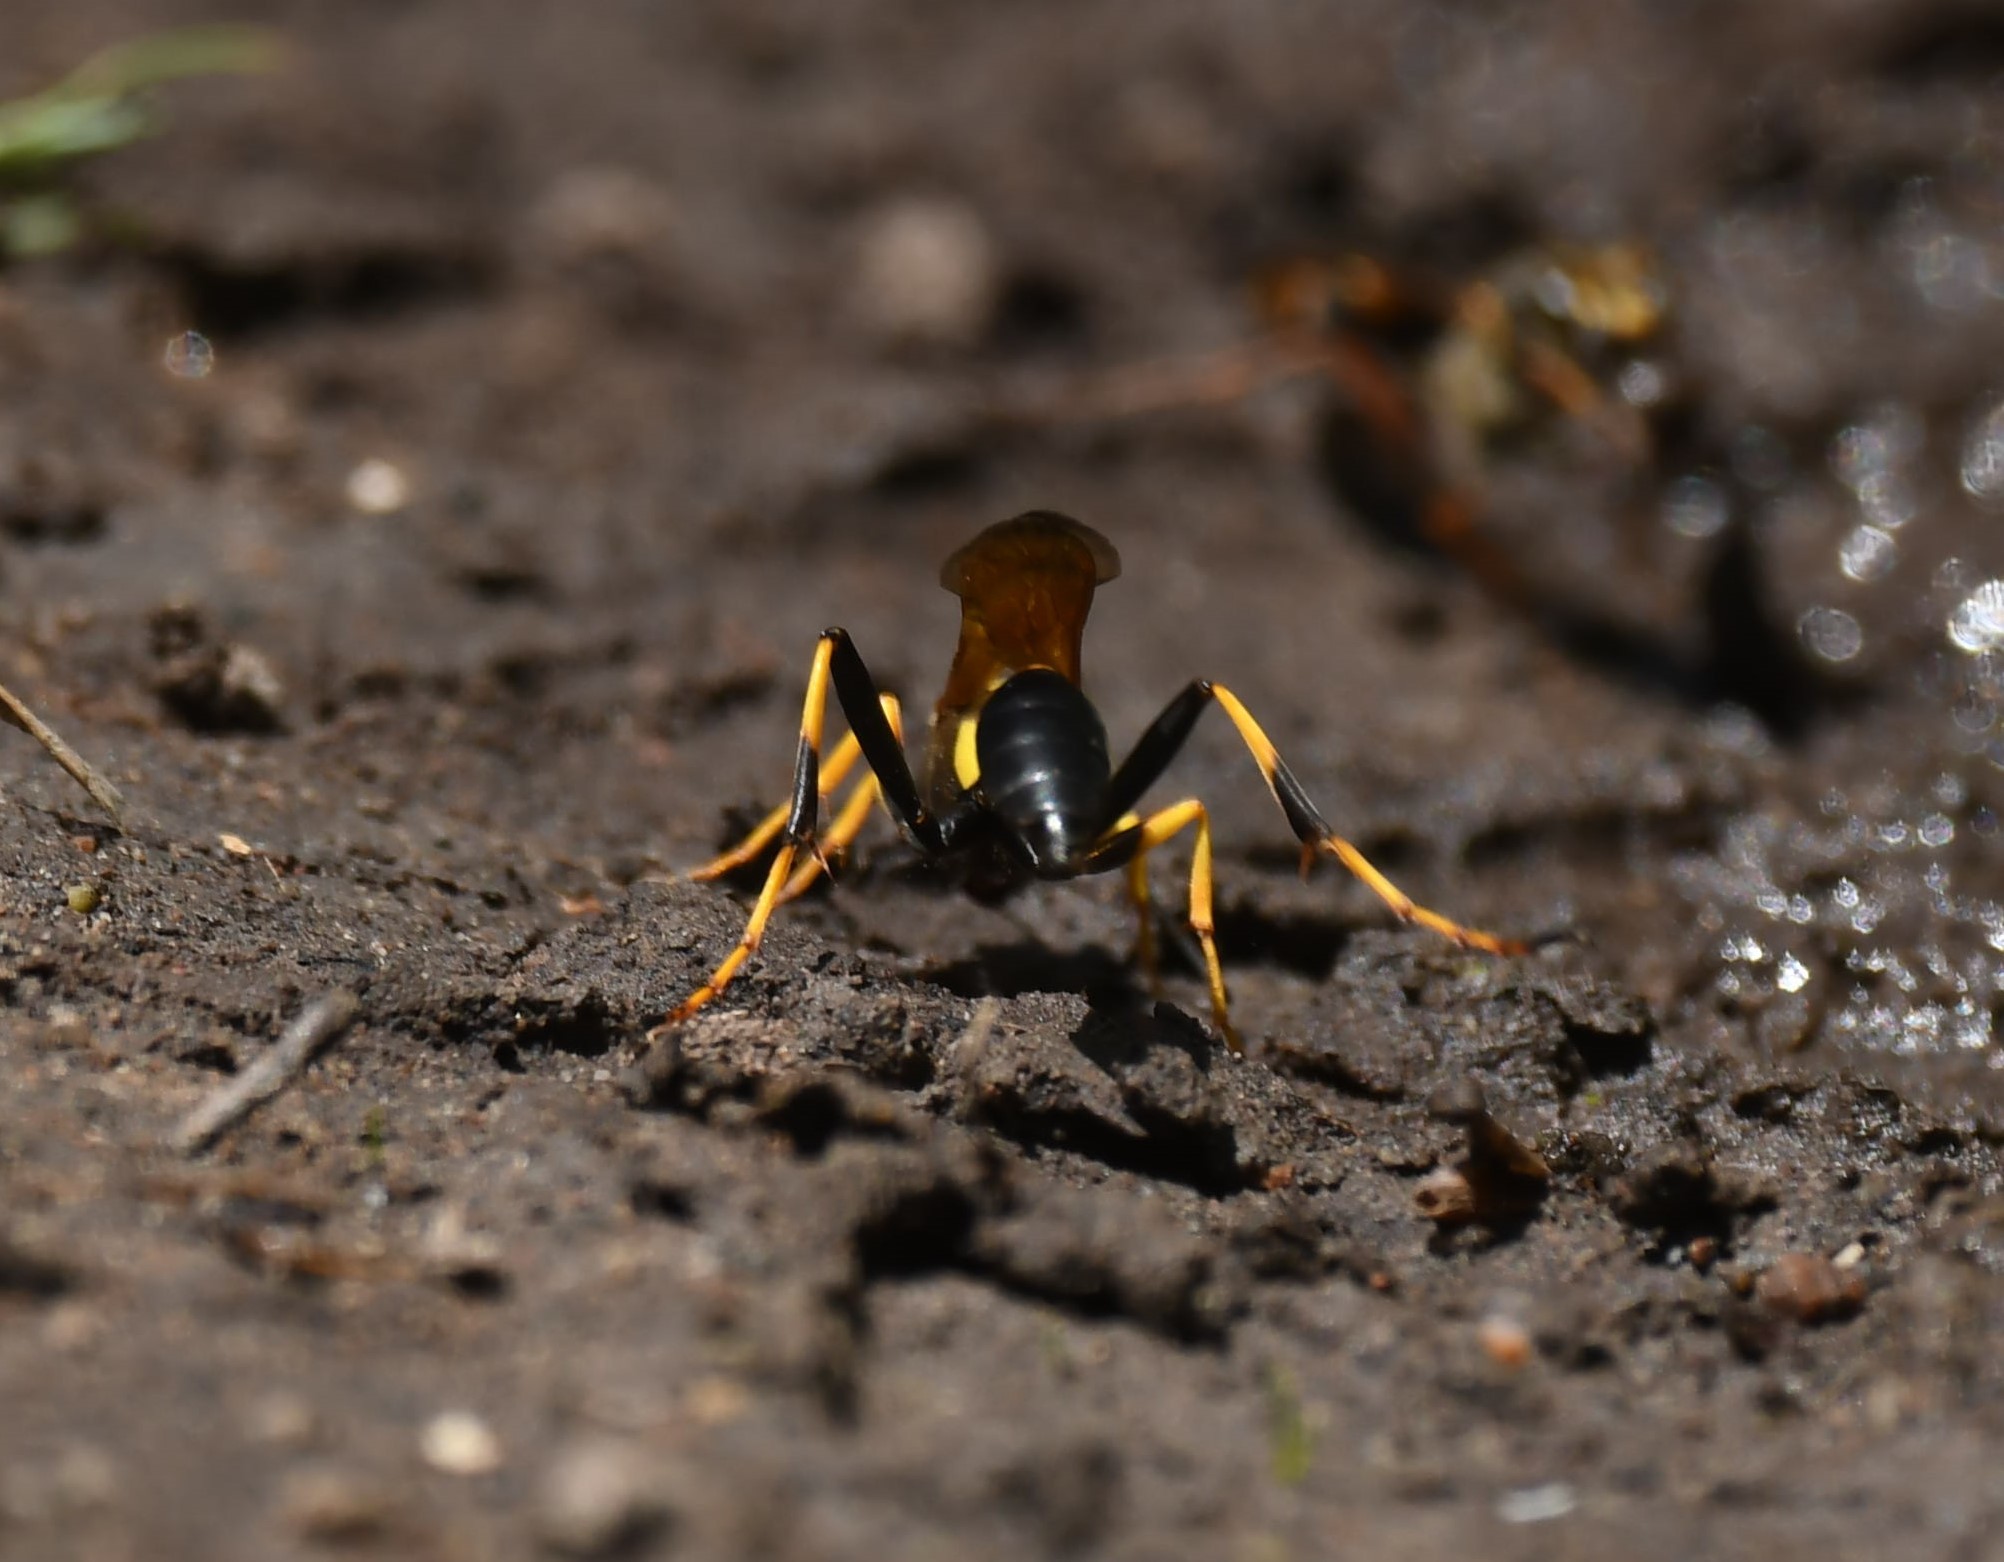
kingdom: Animalia
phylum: Arthropoda
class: Insecta
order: Hymenoptera
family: Sphecidae
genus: Sceliphron
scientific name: Sceliphron caementarium
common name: Mud dauber
